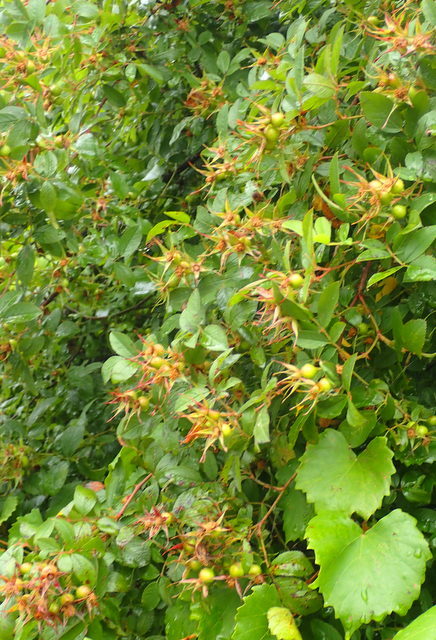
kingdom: Plantae
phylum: Tracheophyta
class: Magnoliopsida
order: Rosales
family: Rosaceae
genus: Rosa
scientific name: Rosa palustris
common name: Swamp rose
